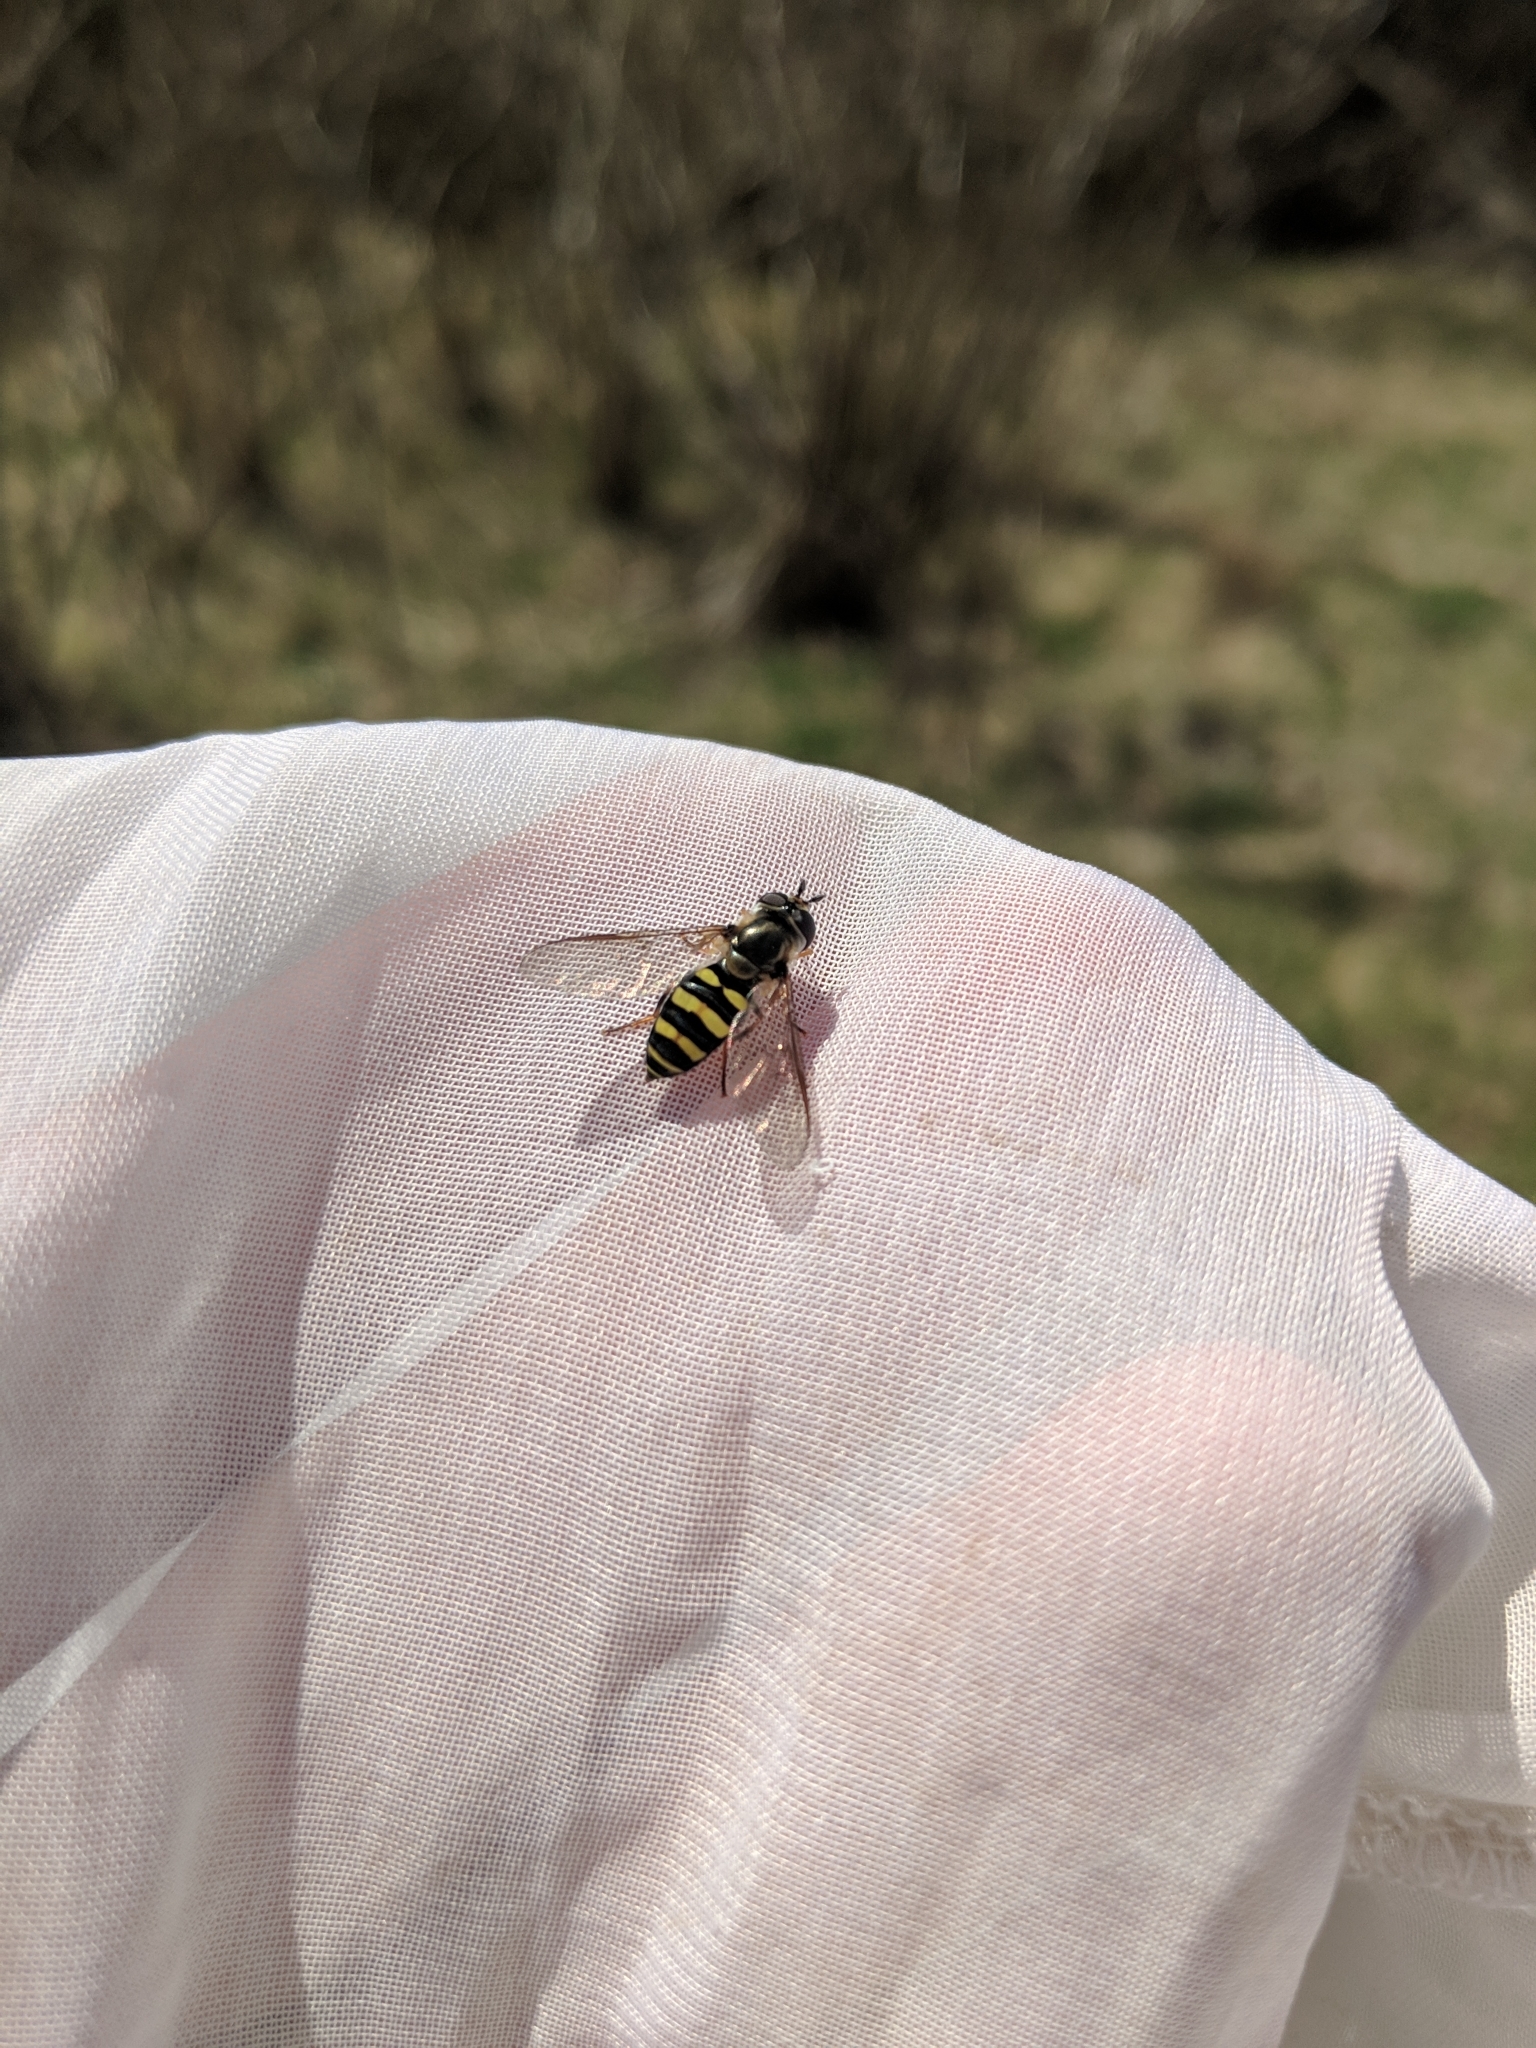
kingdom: Animalia
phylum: Arthropoda
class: Insecta
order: Diptera
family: Syrphidae
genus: Eupeodes
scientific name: Eupeodes
